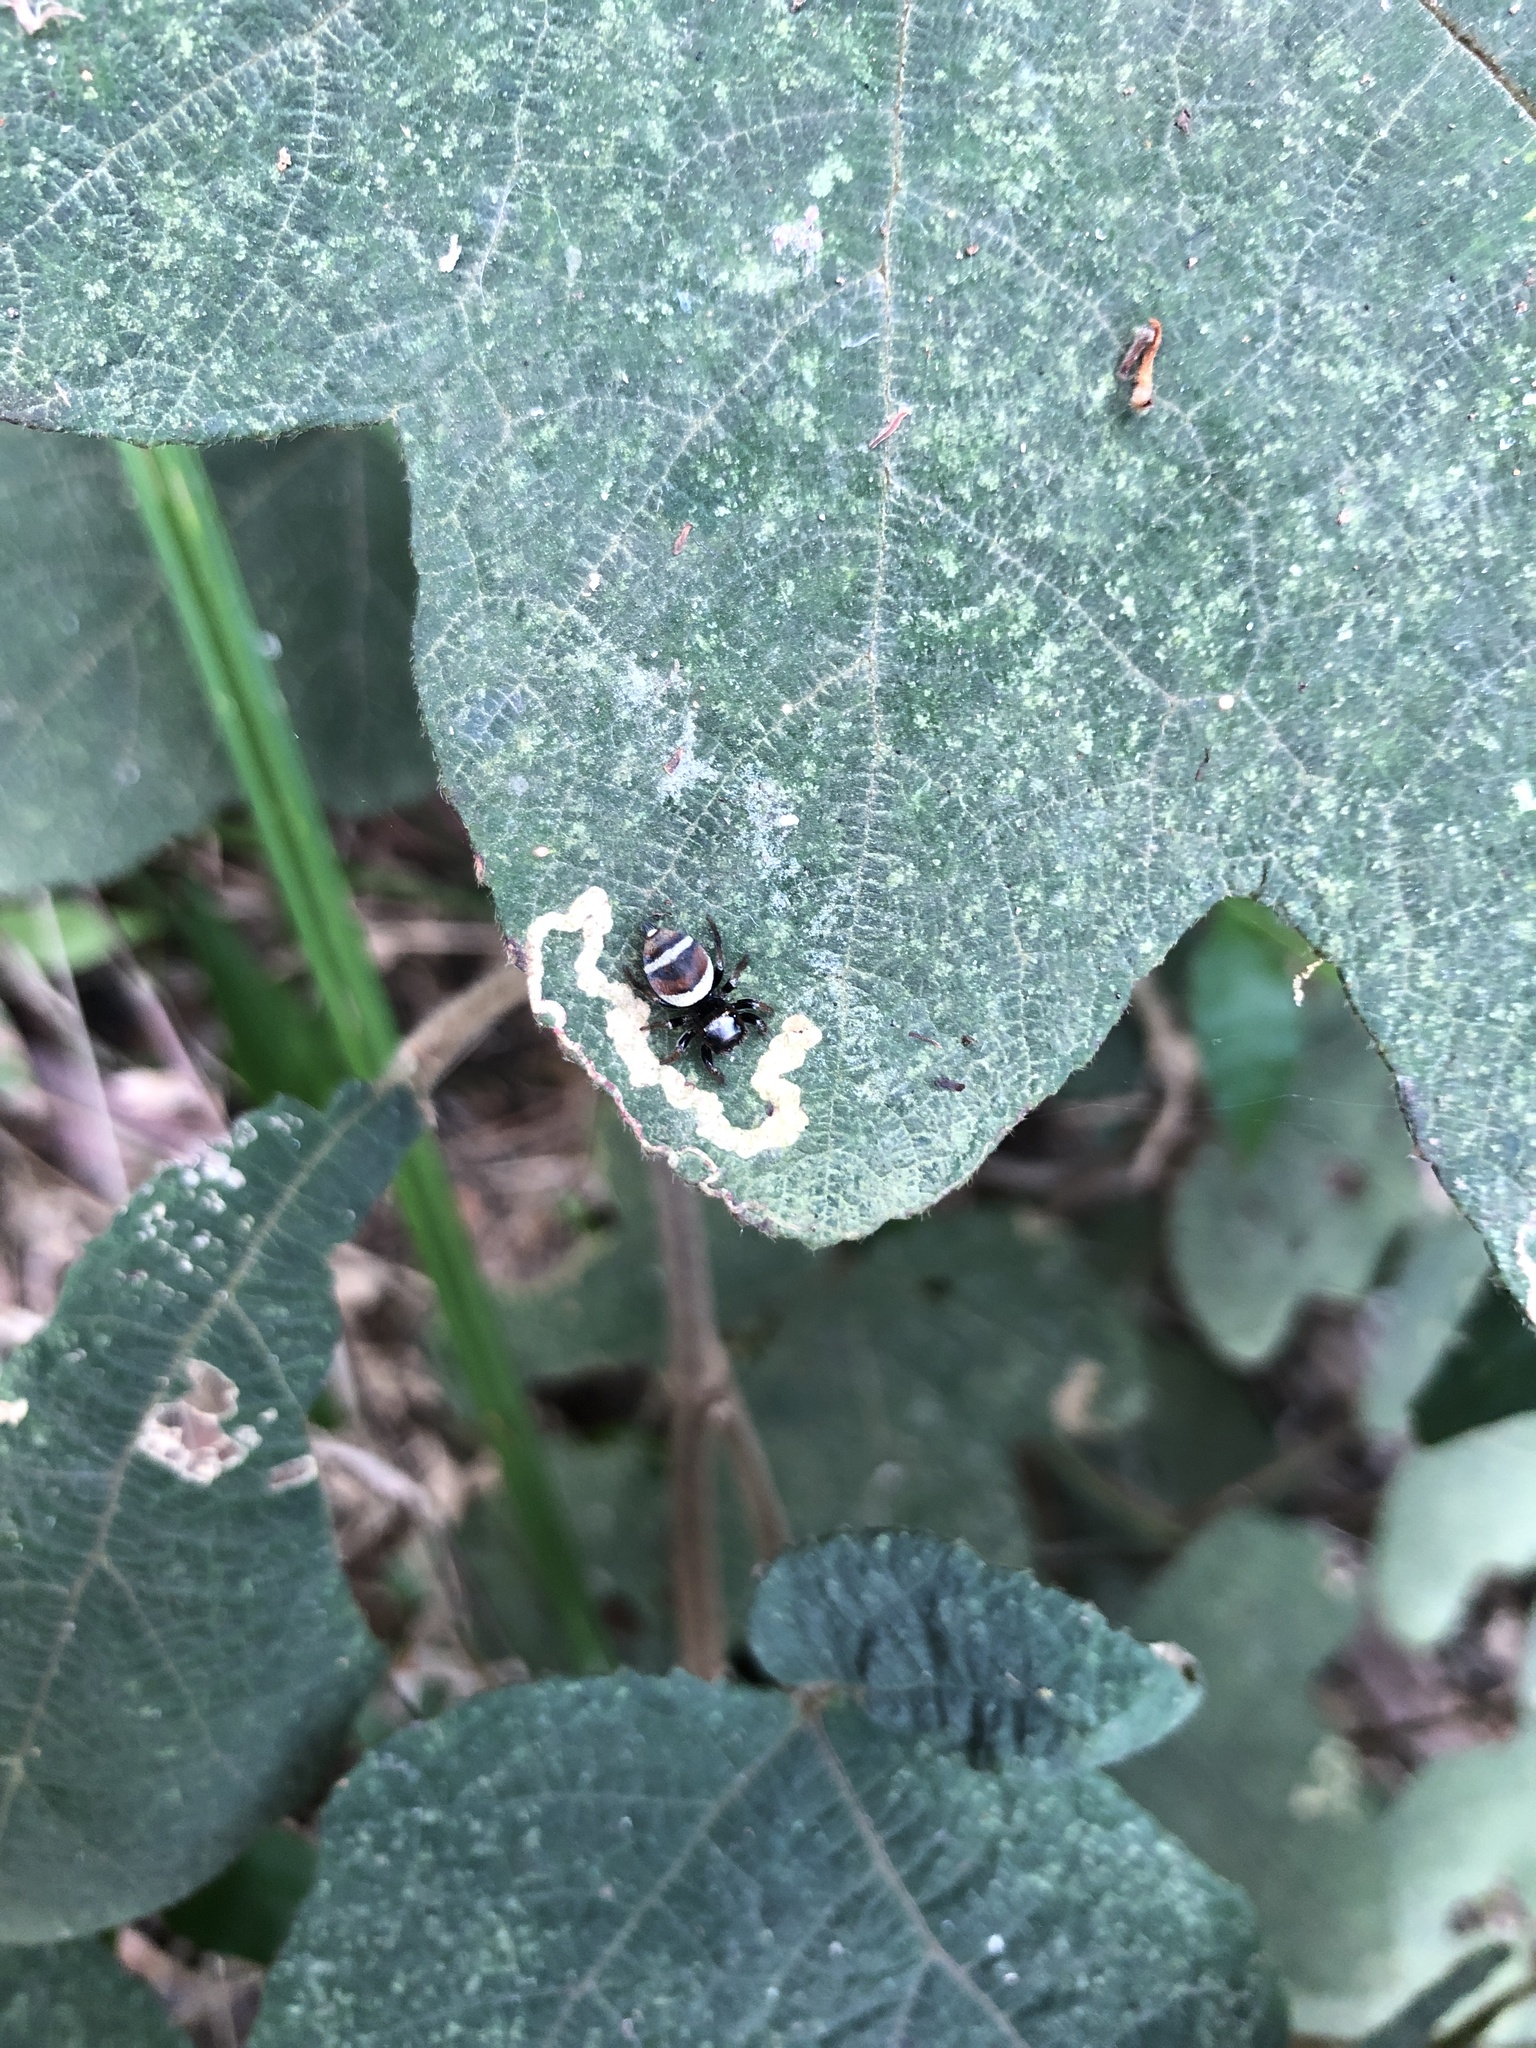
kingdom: Animalia
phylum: Arthropoda
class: Arachnida
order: Araneae
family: Salticidae
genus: Ptocasius
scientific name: Ptocasius strupifer
